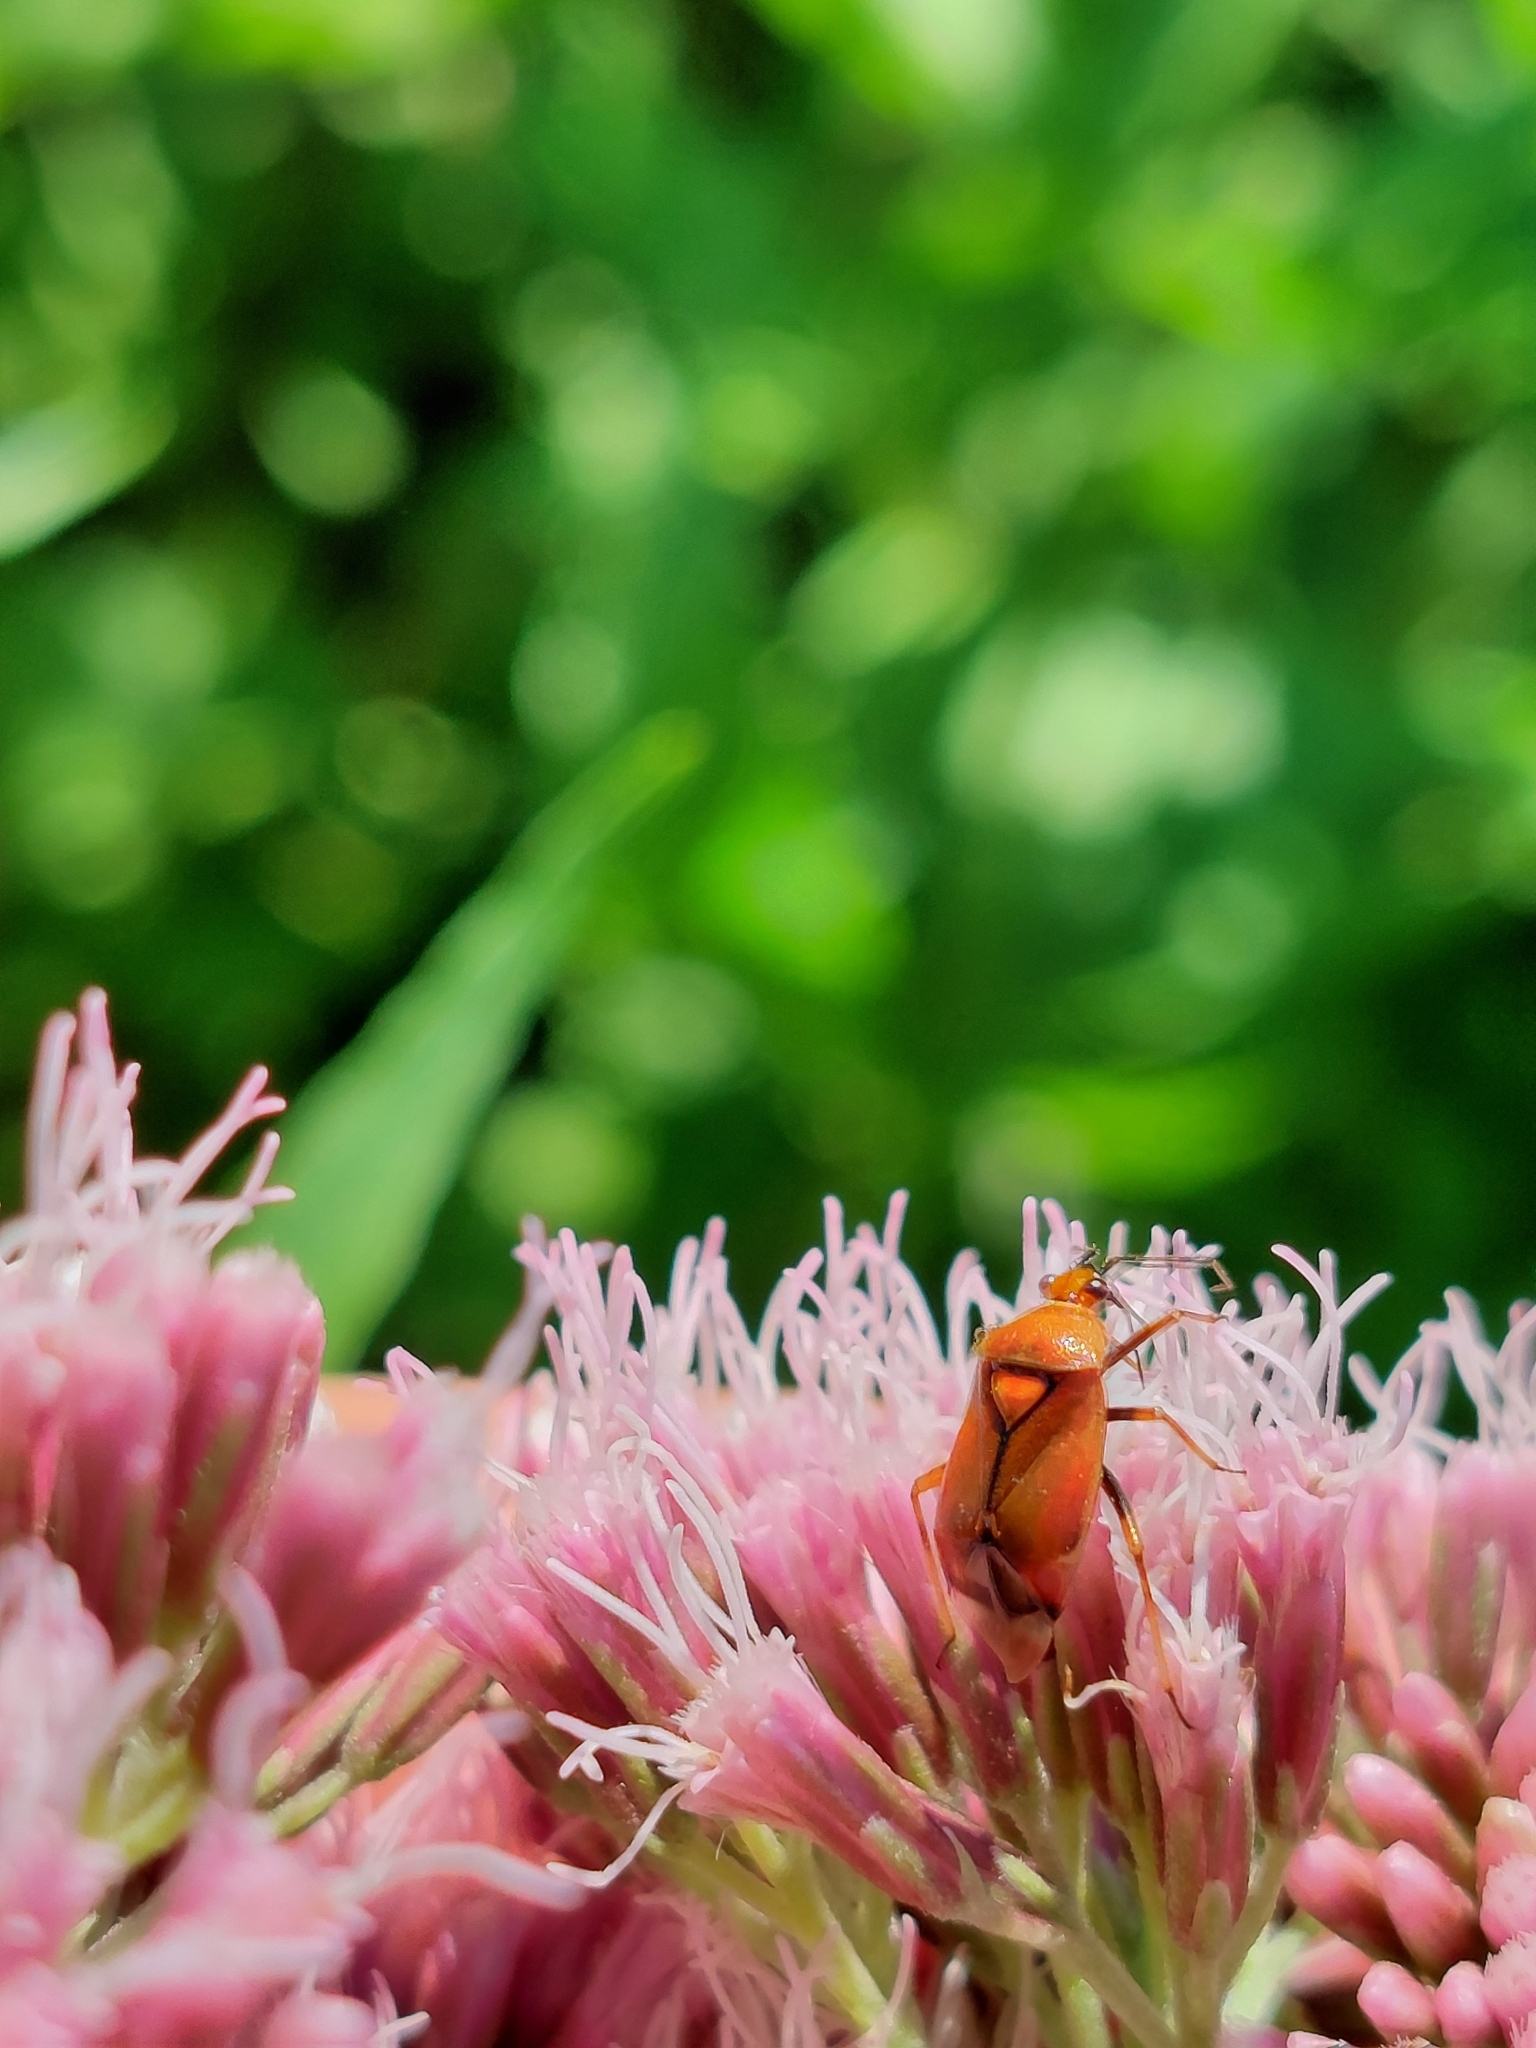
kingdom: Animalia
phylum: Arthropoda
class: Insecta
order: Hemiptera
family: Miridae
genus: Deraeocoris
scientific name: Deraeocoris ruber
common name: Plant bug
